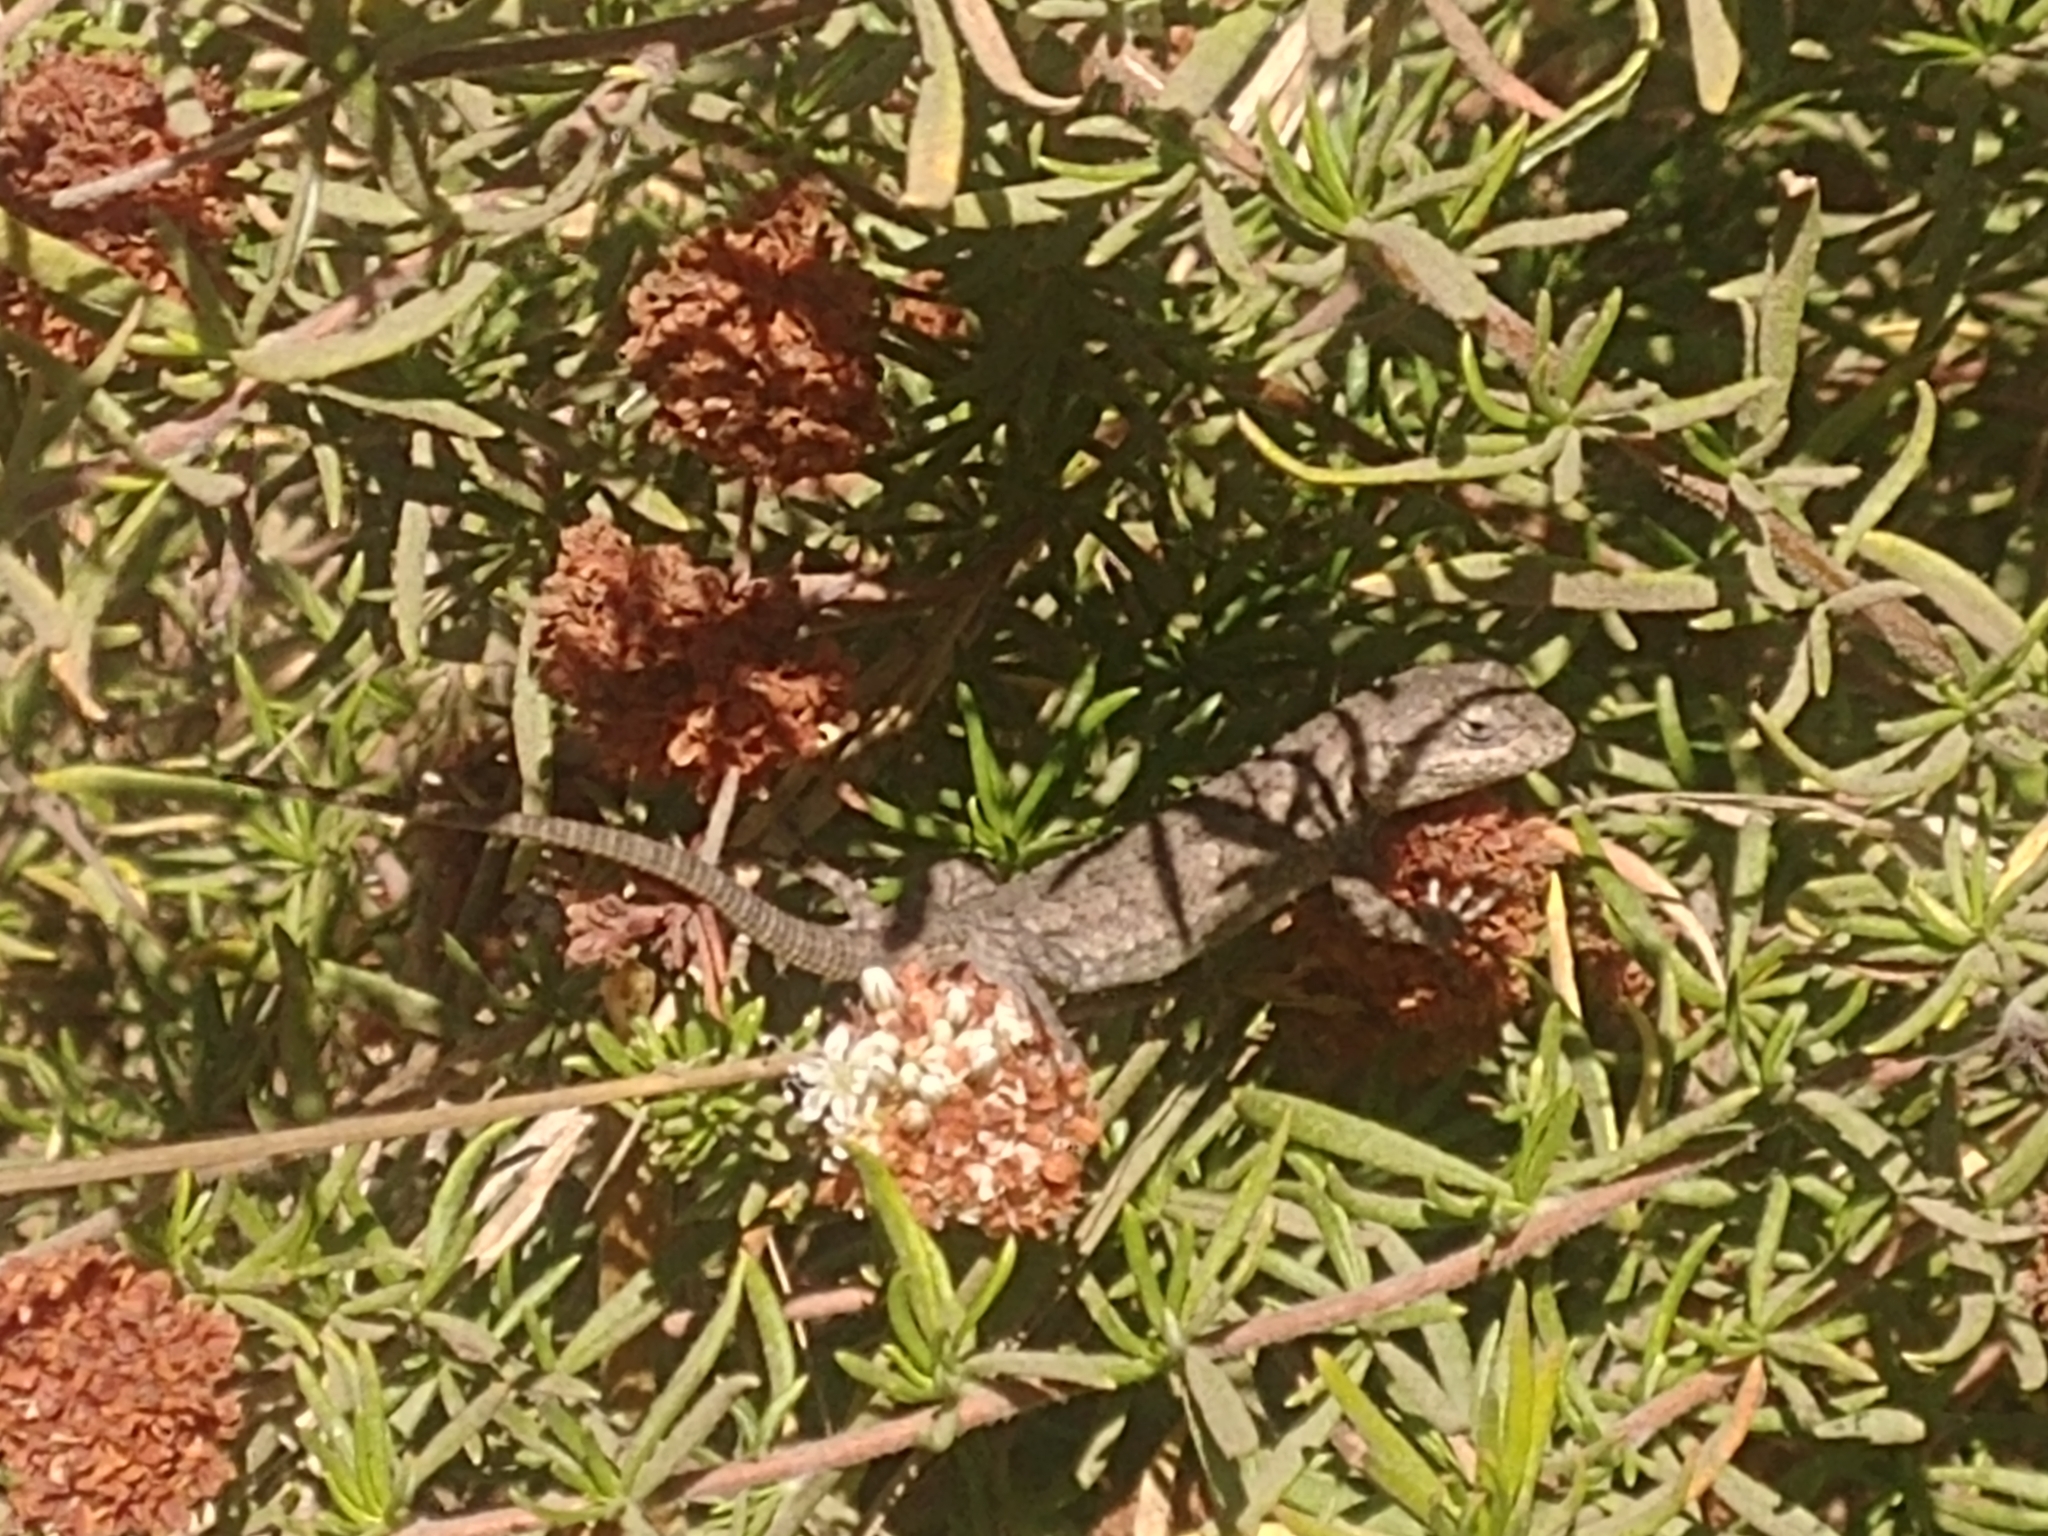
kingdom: Animalia
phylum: Chordata
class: Squamata
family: Phrynosomatidae
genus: Sceloporus
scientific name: Sceloporus occidentalis
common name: Western fence lizard
